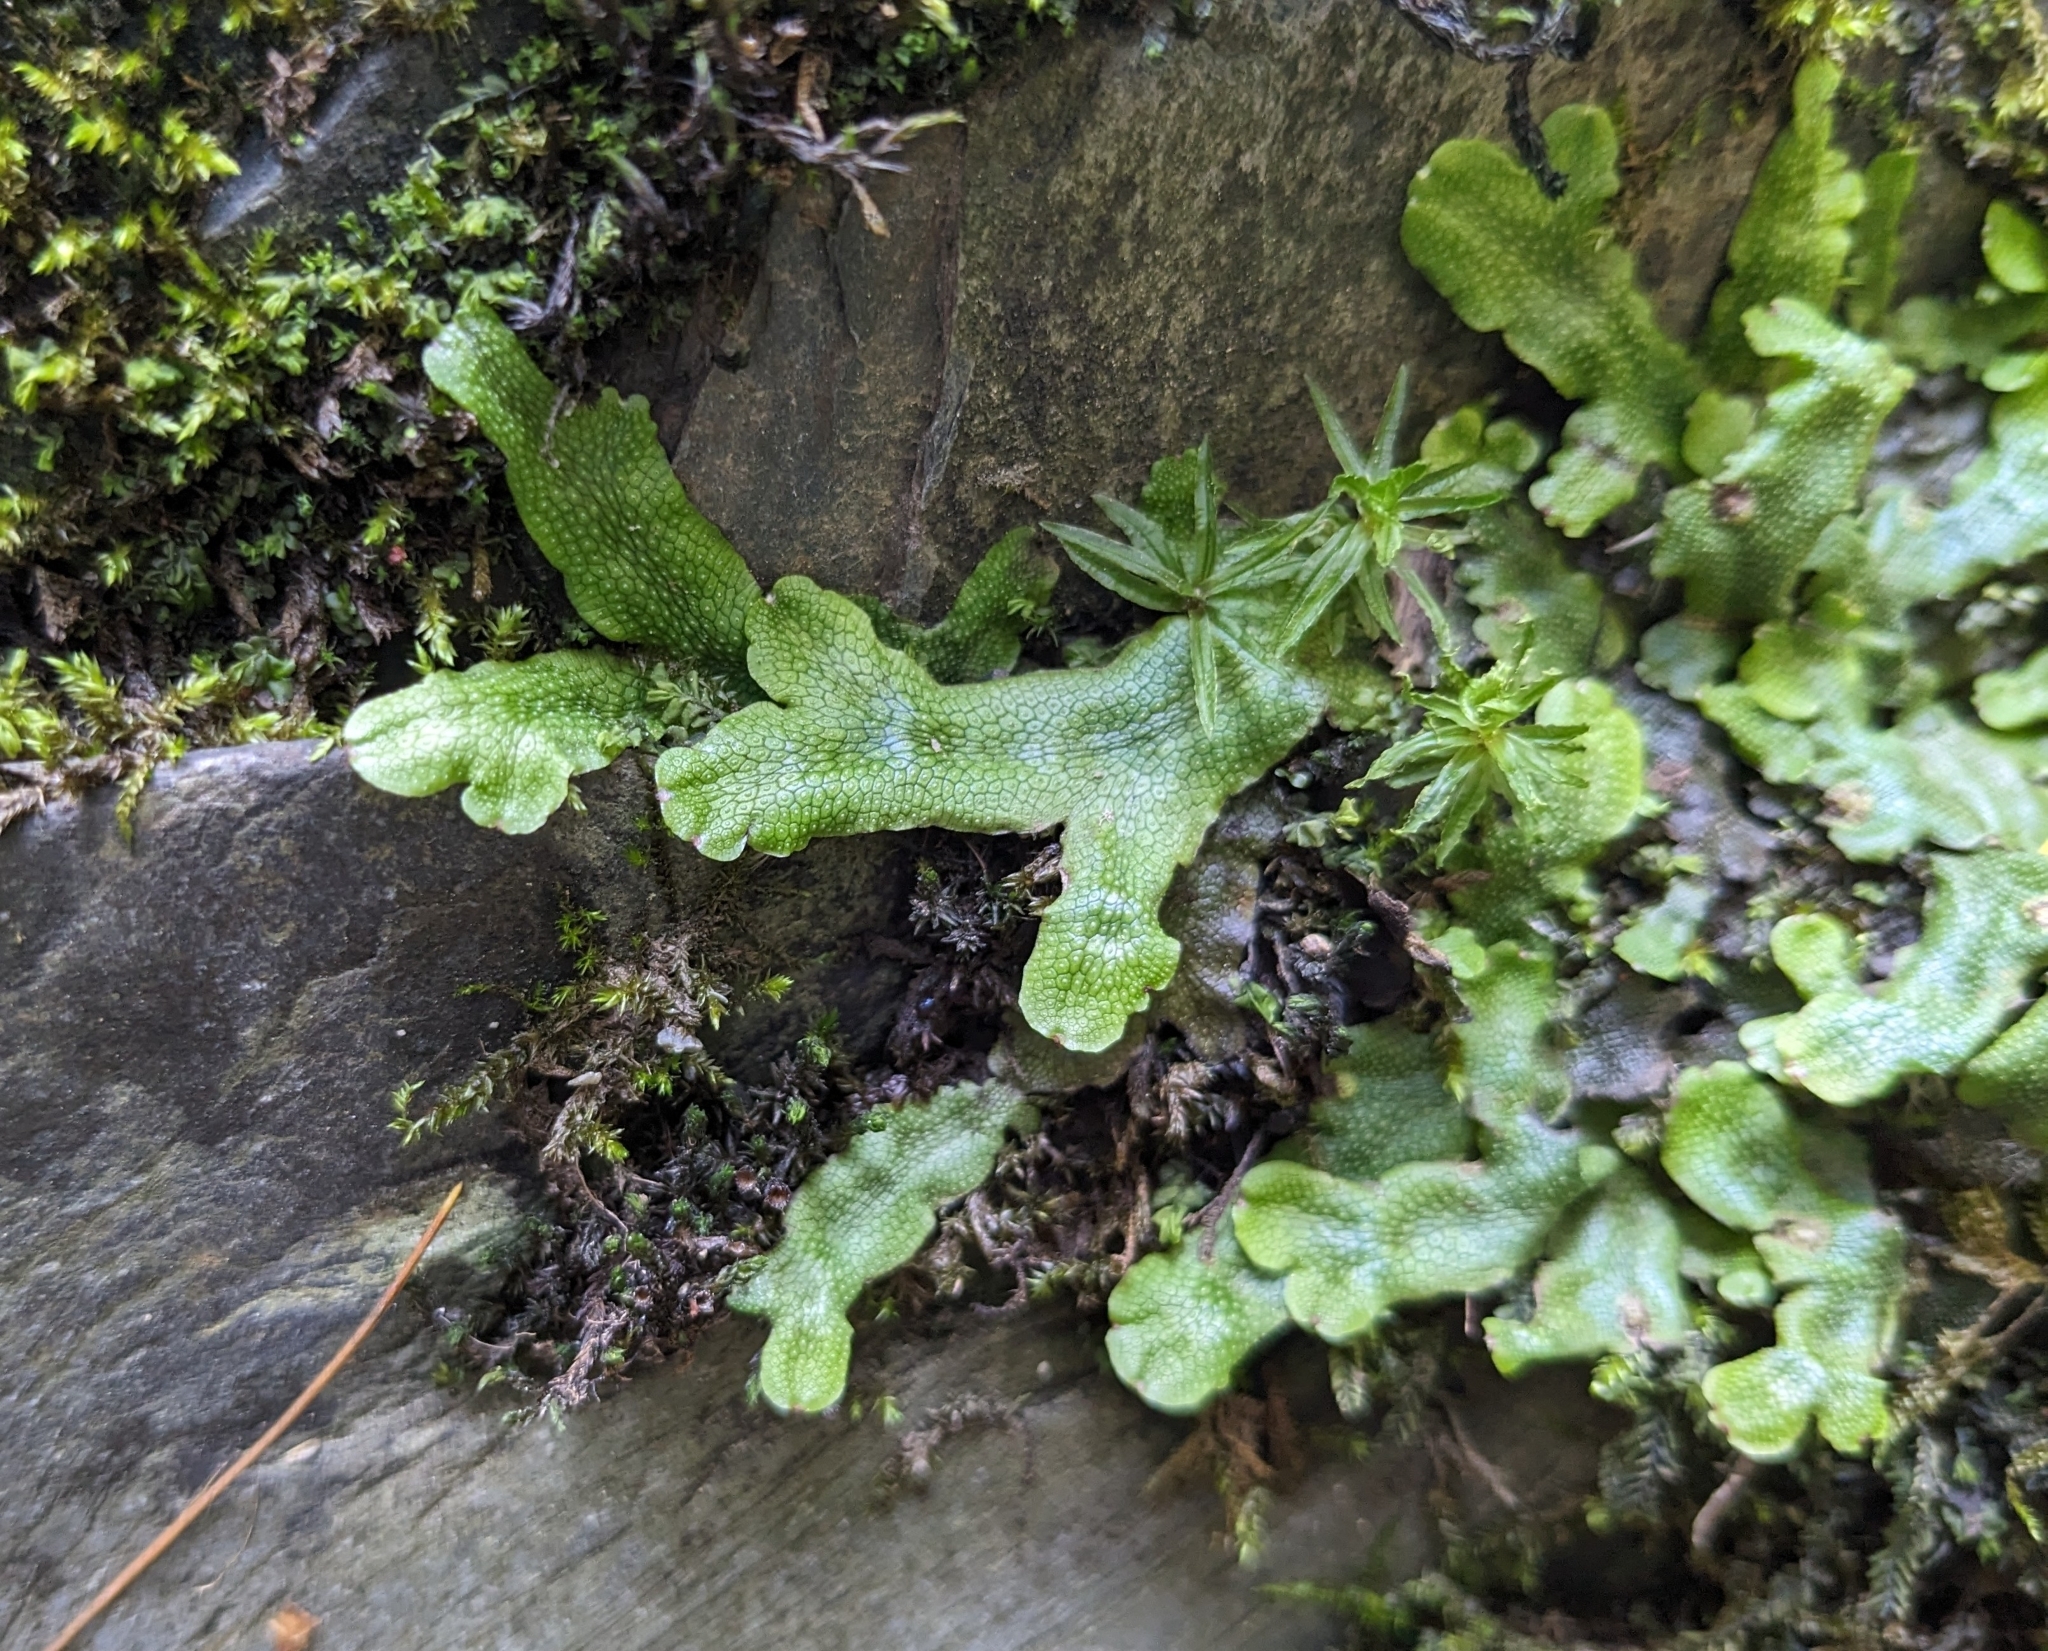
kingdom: Plantae
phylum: Marchantiophyta
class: Marchantiopsida
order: Marchantiales
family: Conocephalaceae
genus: Conocephalum
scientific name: Conocephalum salebrosum
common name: Cat-tongue liverwort
